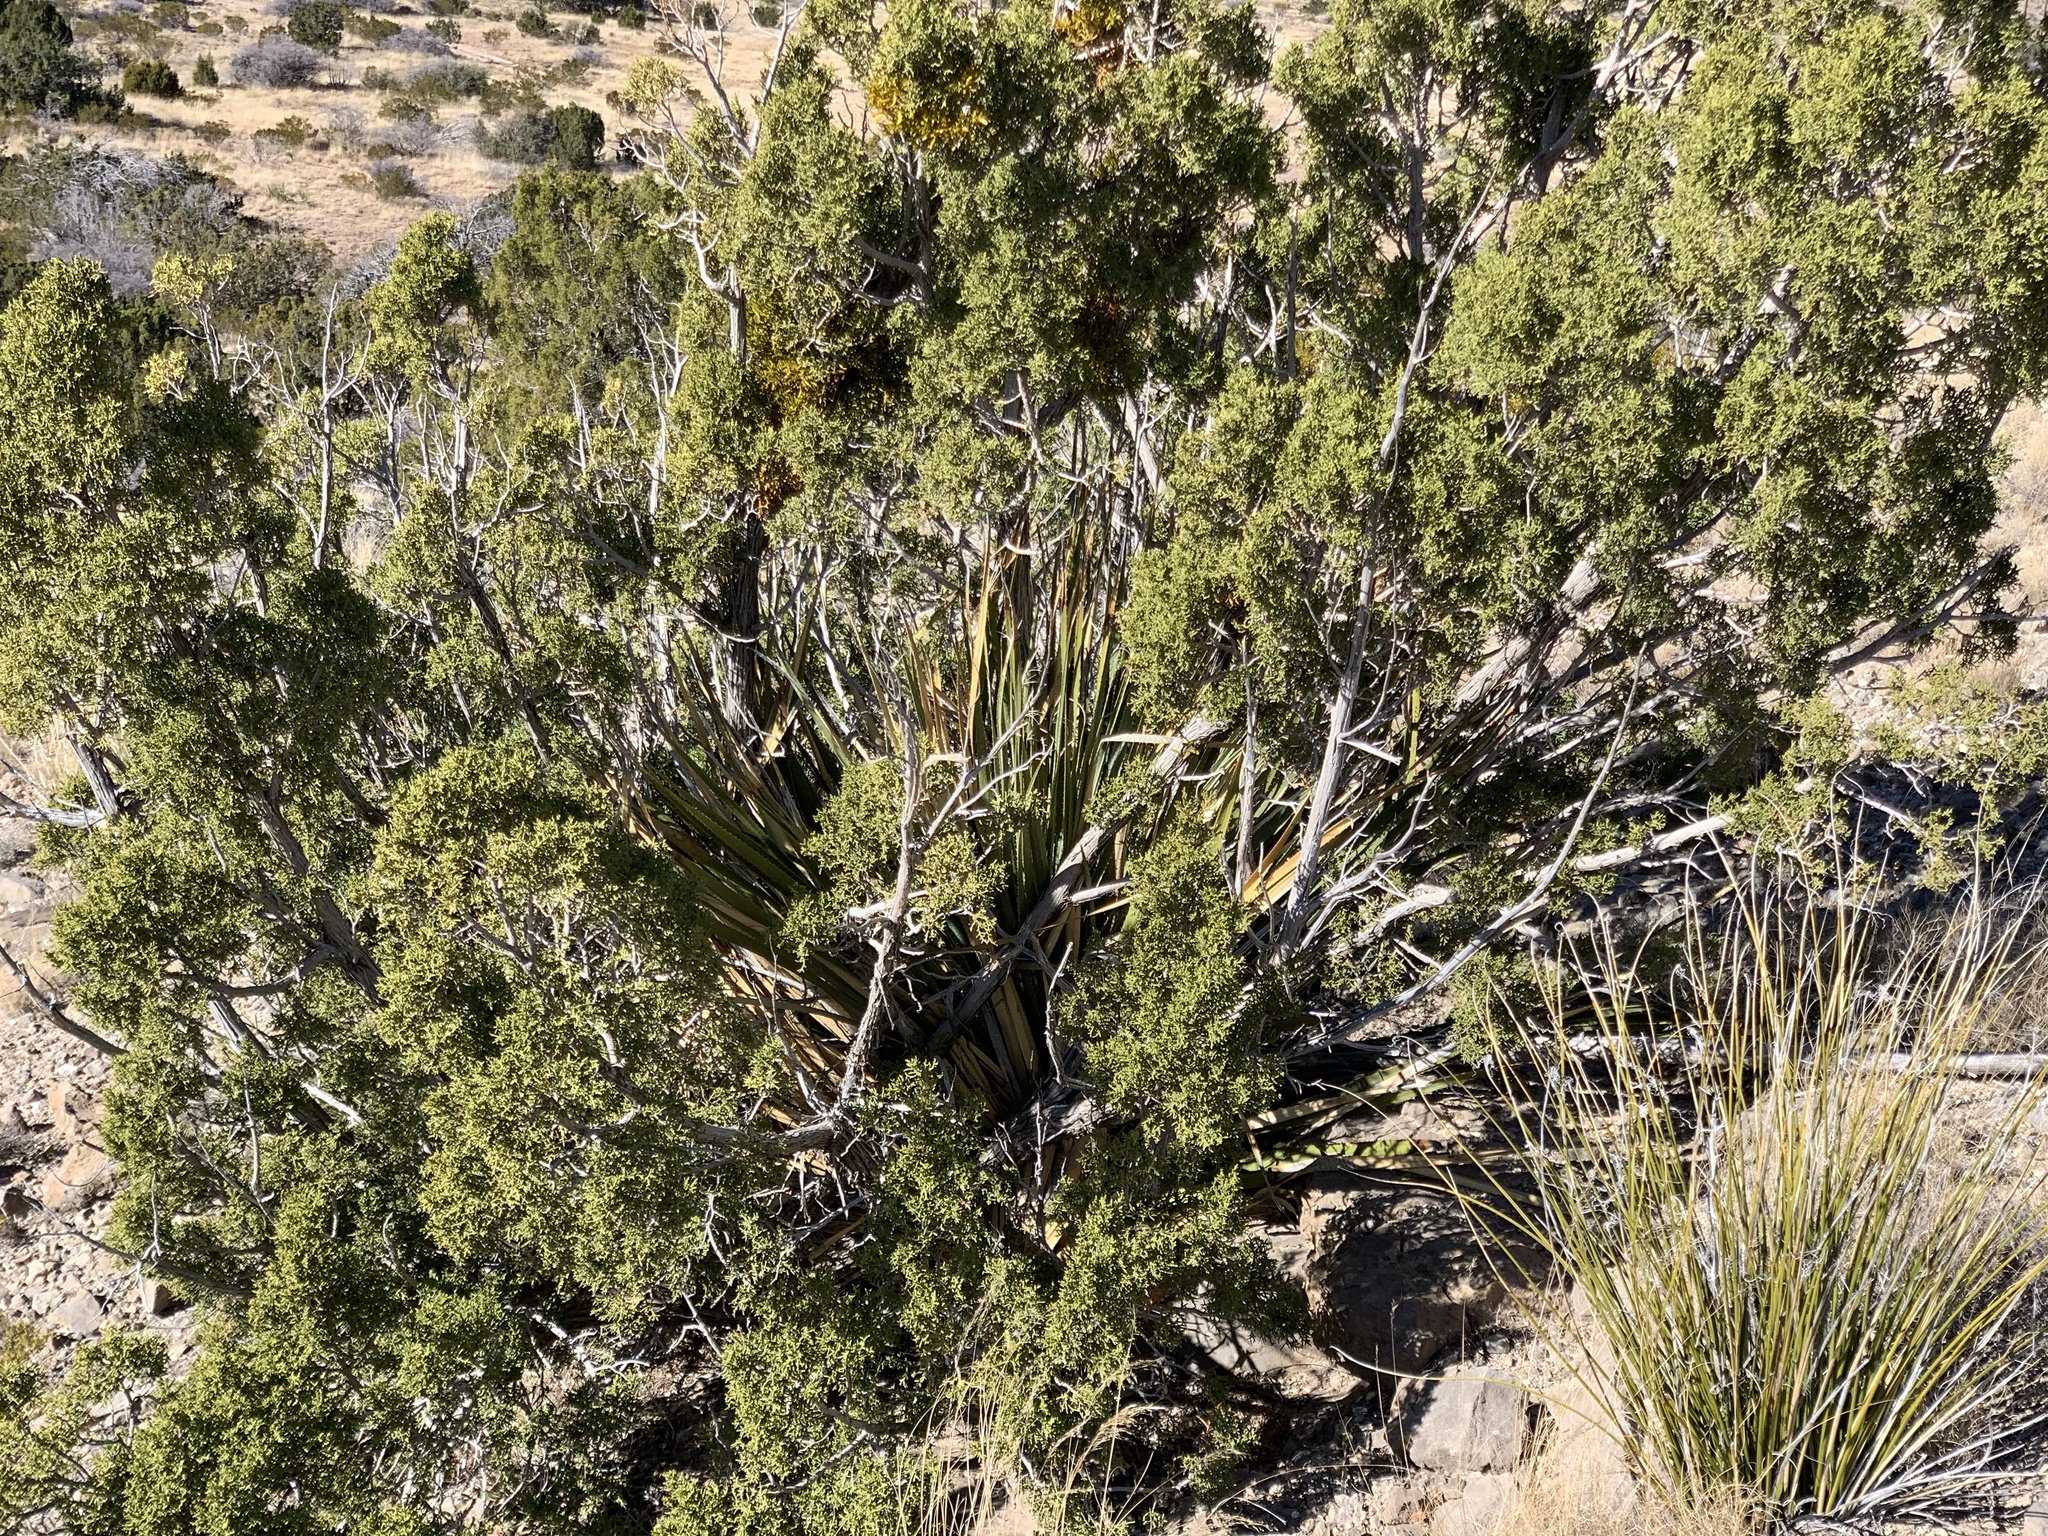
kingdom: Plantae
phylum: Tracheophyta
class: Pinopsida
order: Pinales
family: Cupressaceae
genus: Juniperus
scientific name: Juniperus monosperma
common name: One-seed juniper
